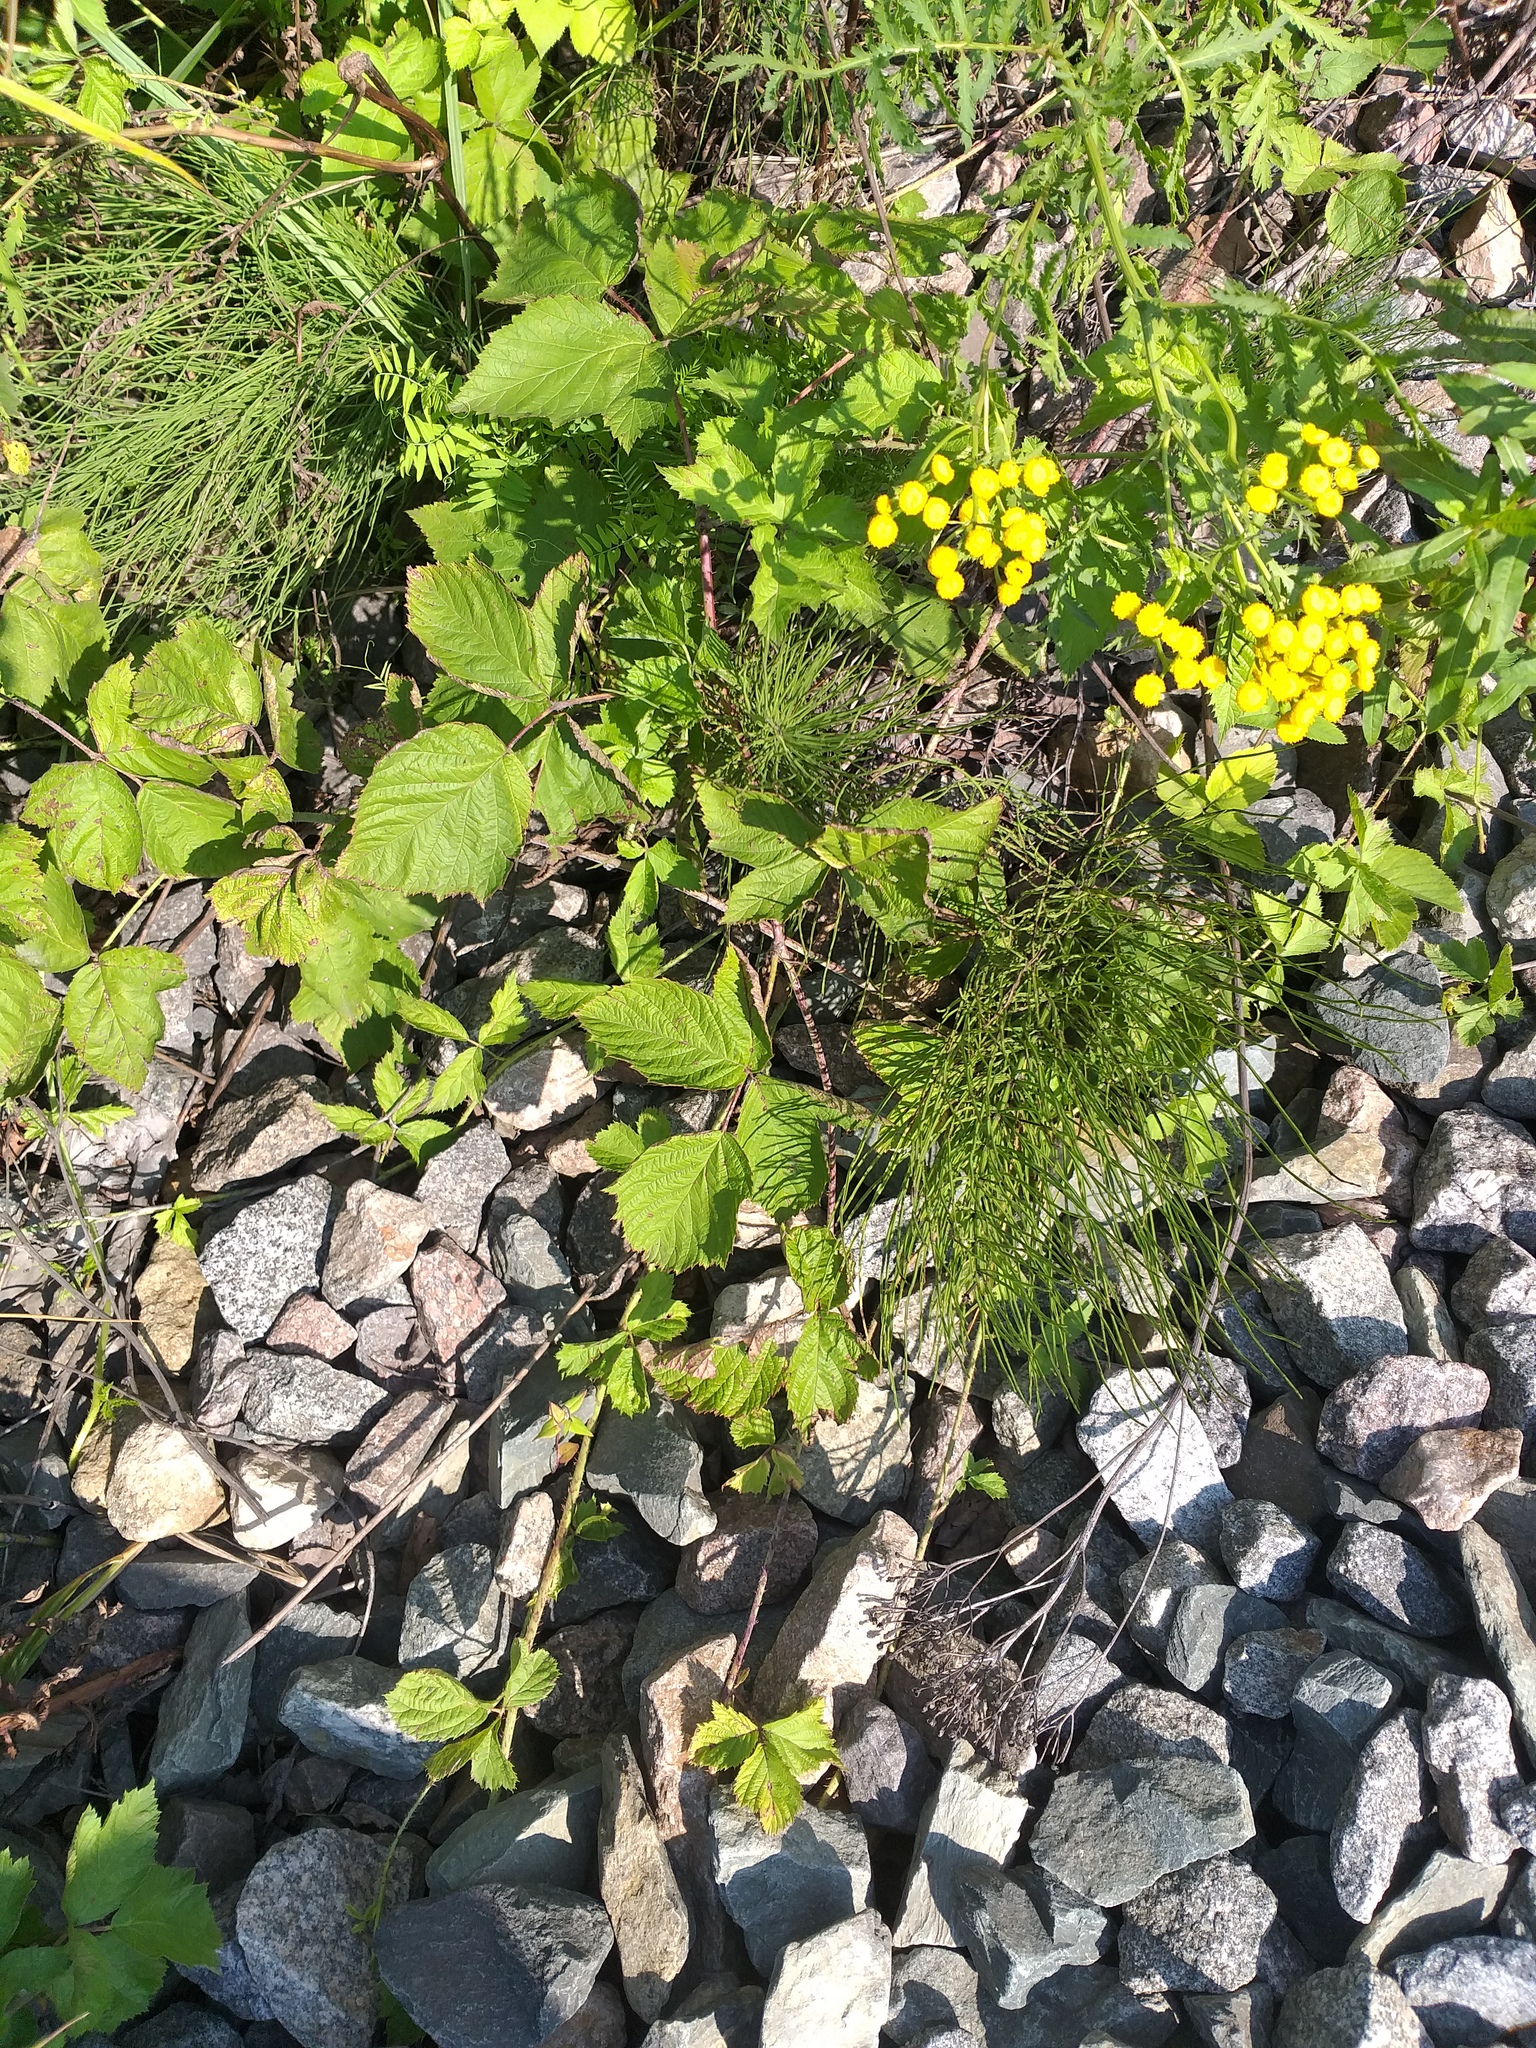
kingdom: Plantae
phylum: Tracheophyta
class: Magnoliopsida
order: Rosales
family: Rosaceae
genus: Rubus
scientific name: Rubus caesius
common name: Dewberry
